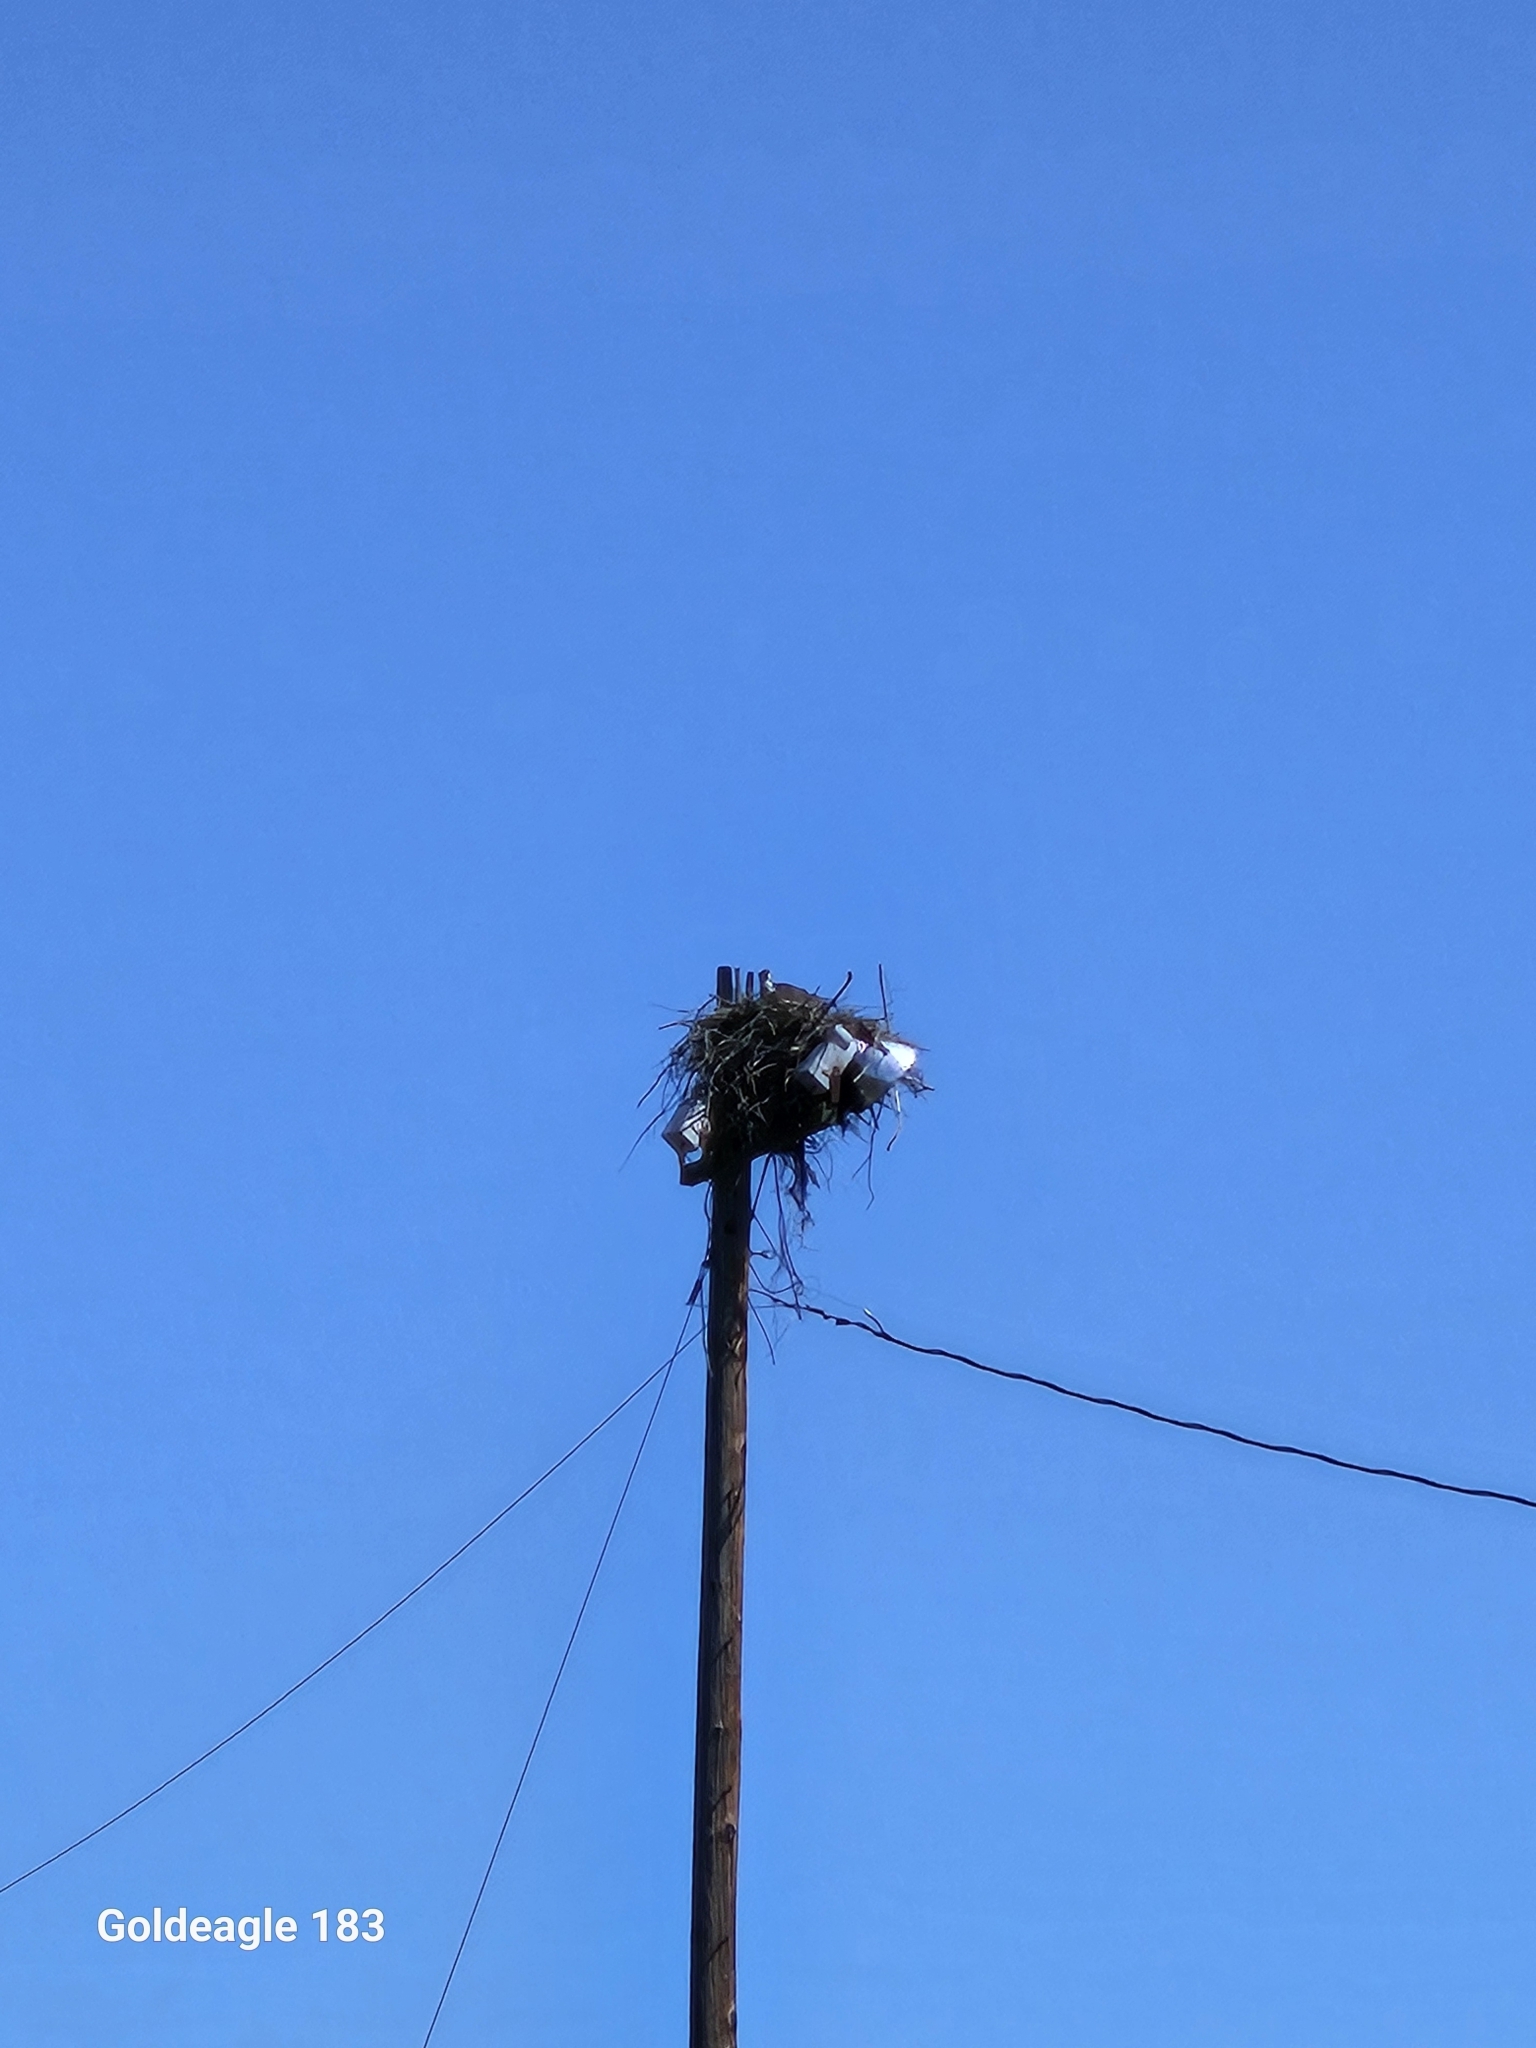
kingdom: Animalia
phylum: Chordata
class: Aves
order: Accipitriformes
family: Pandionidae
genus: Pandion
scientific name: Pandion haliaetus
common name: Osprey
